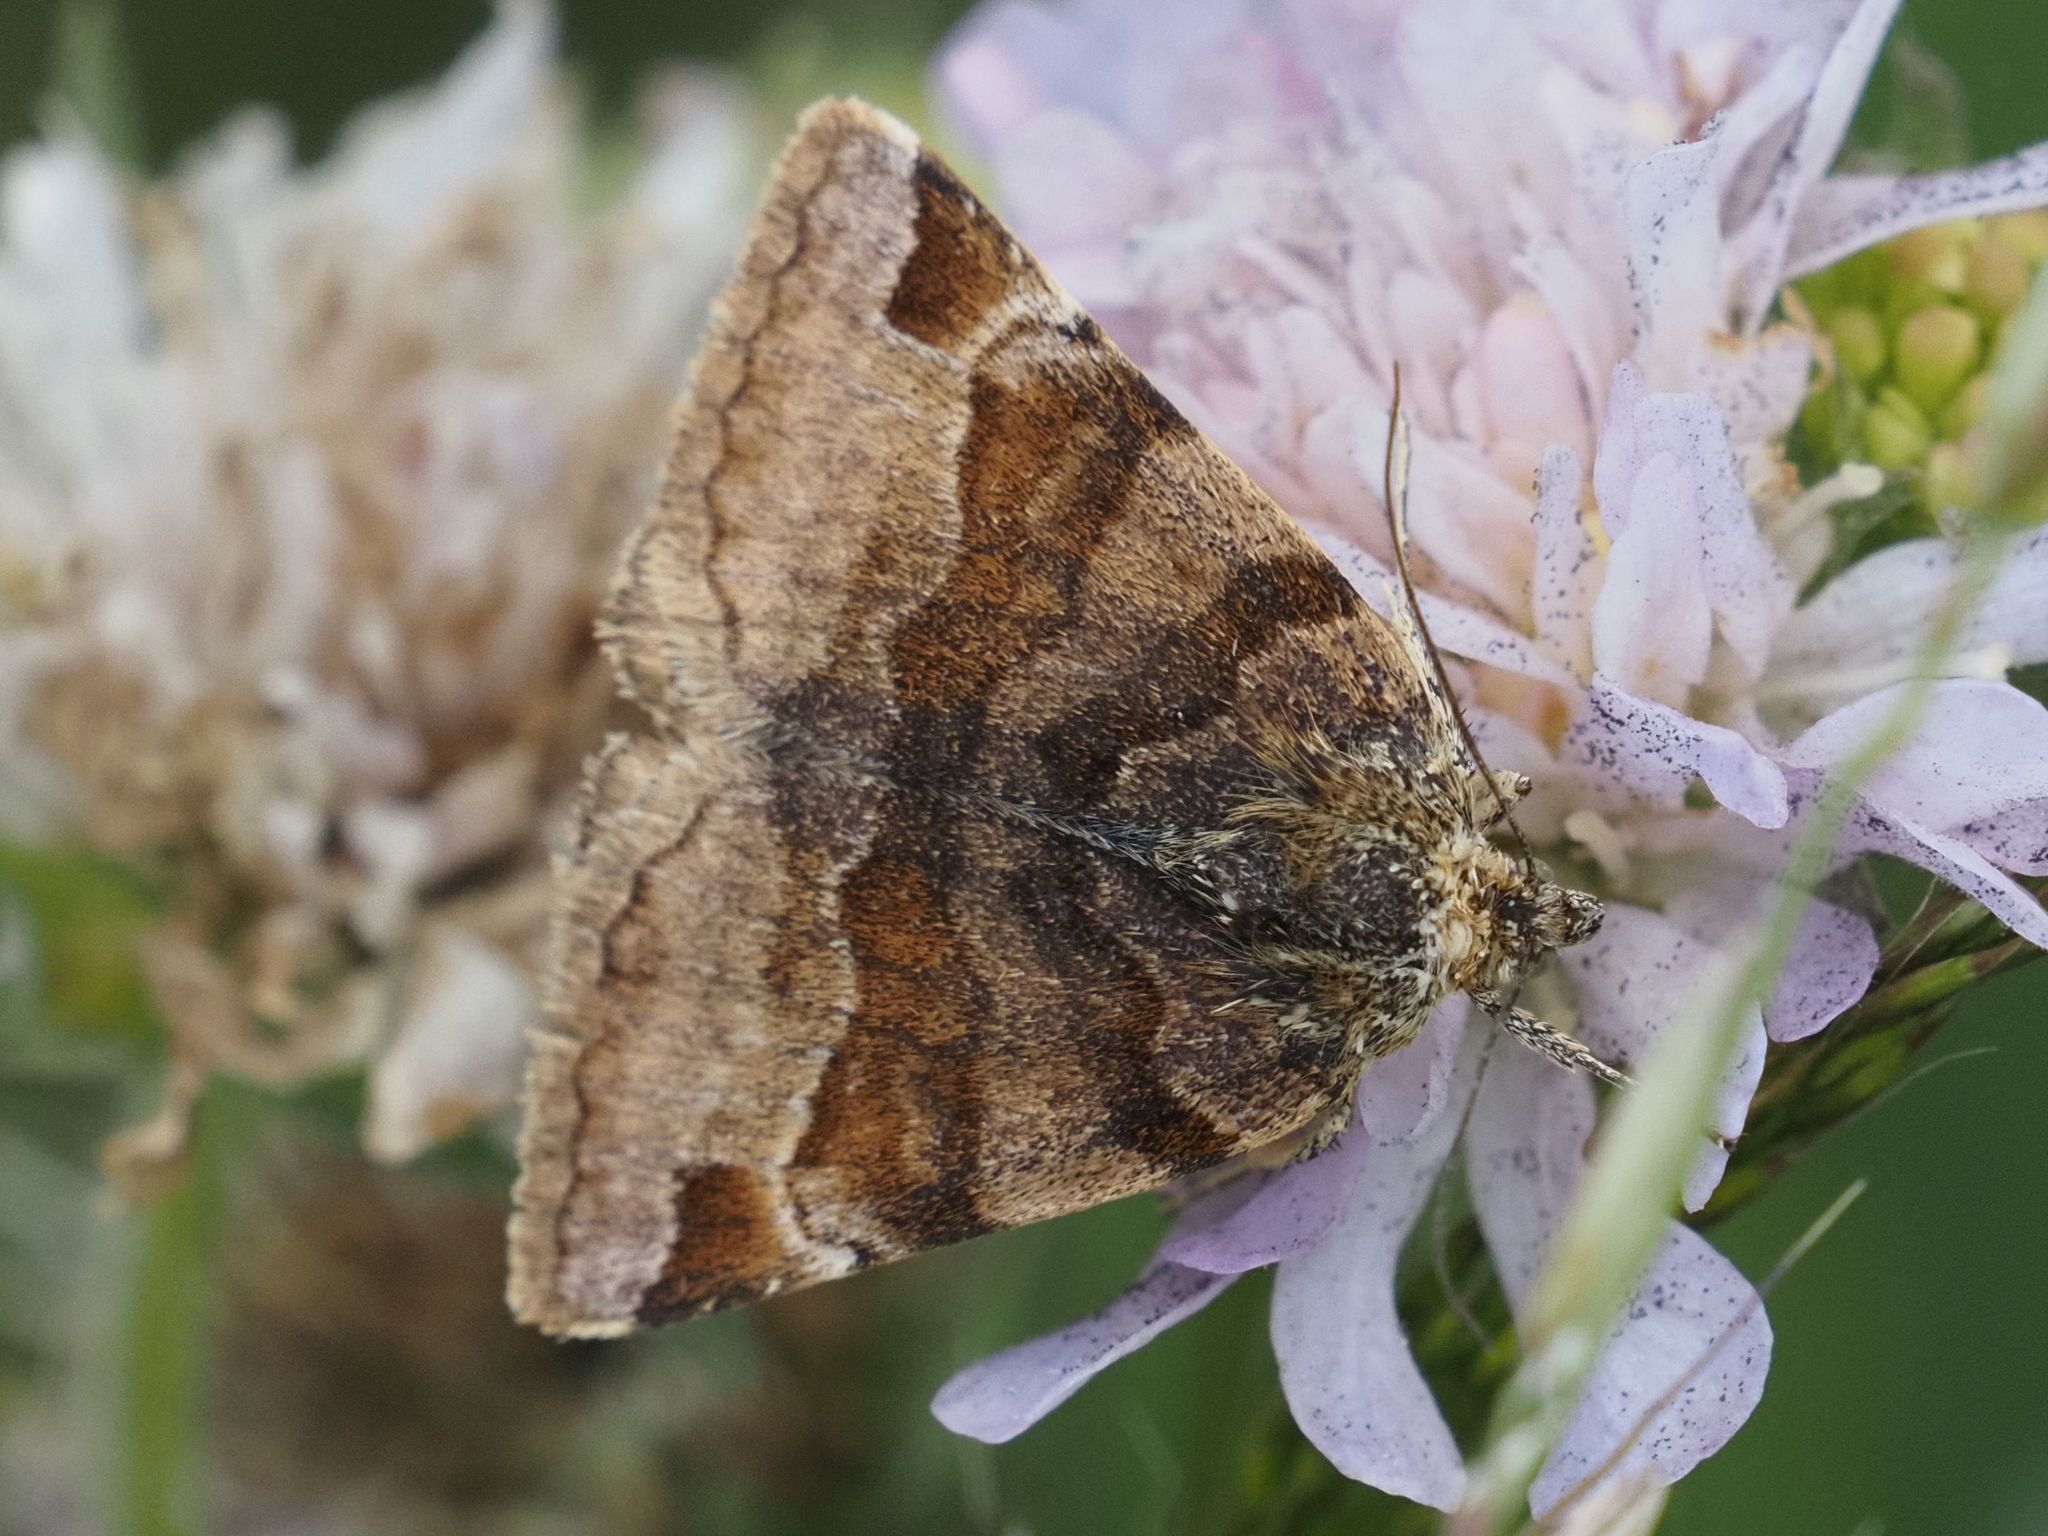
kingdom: Animalia
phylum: Arthropoda
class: Insecta
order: Lepidoptera
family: Erebidae
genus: Euclidia
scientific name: Euclidia glyphica
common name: Burnet companion
